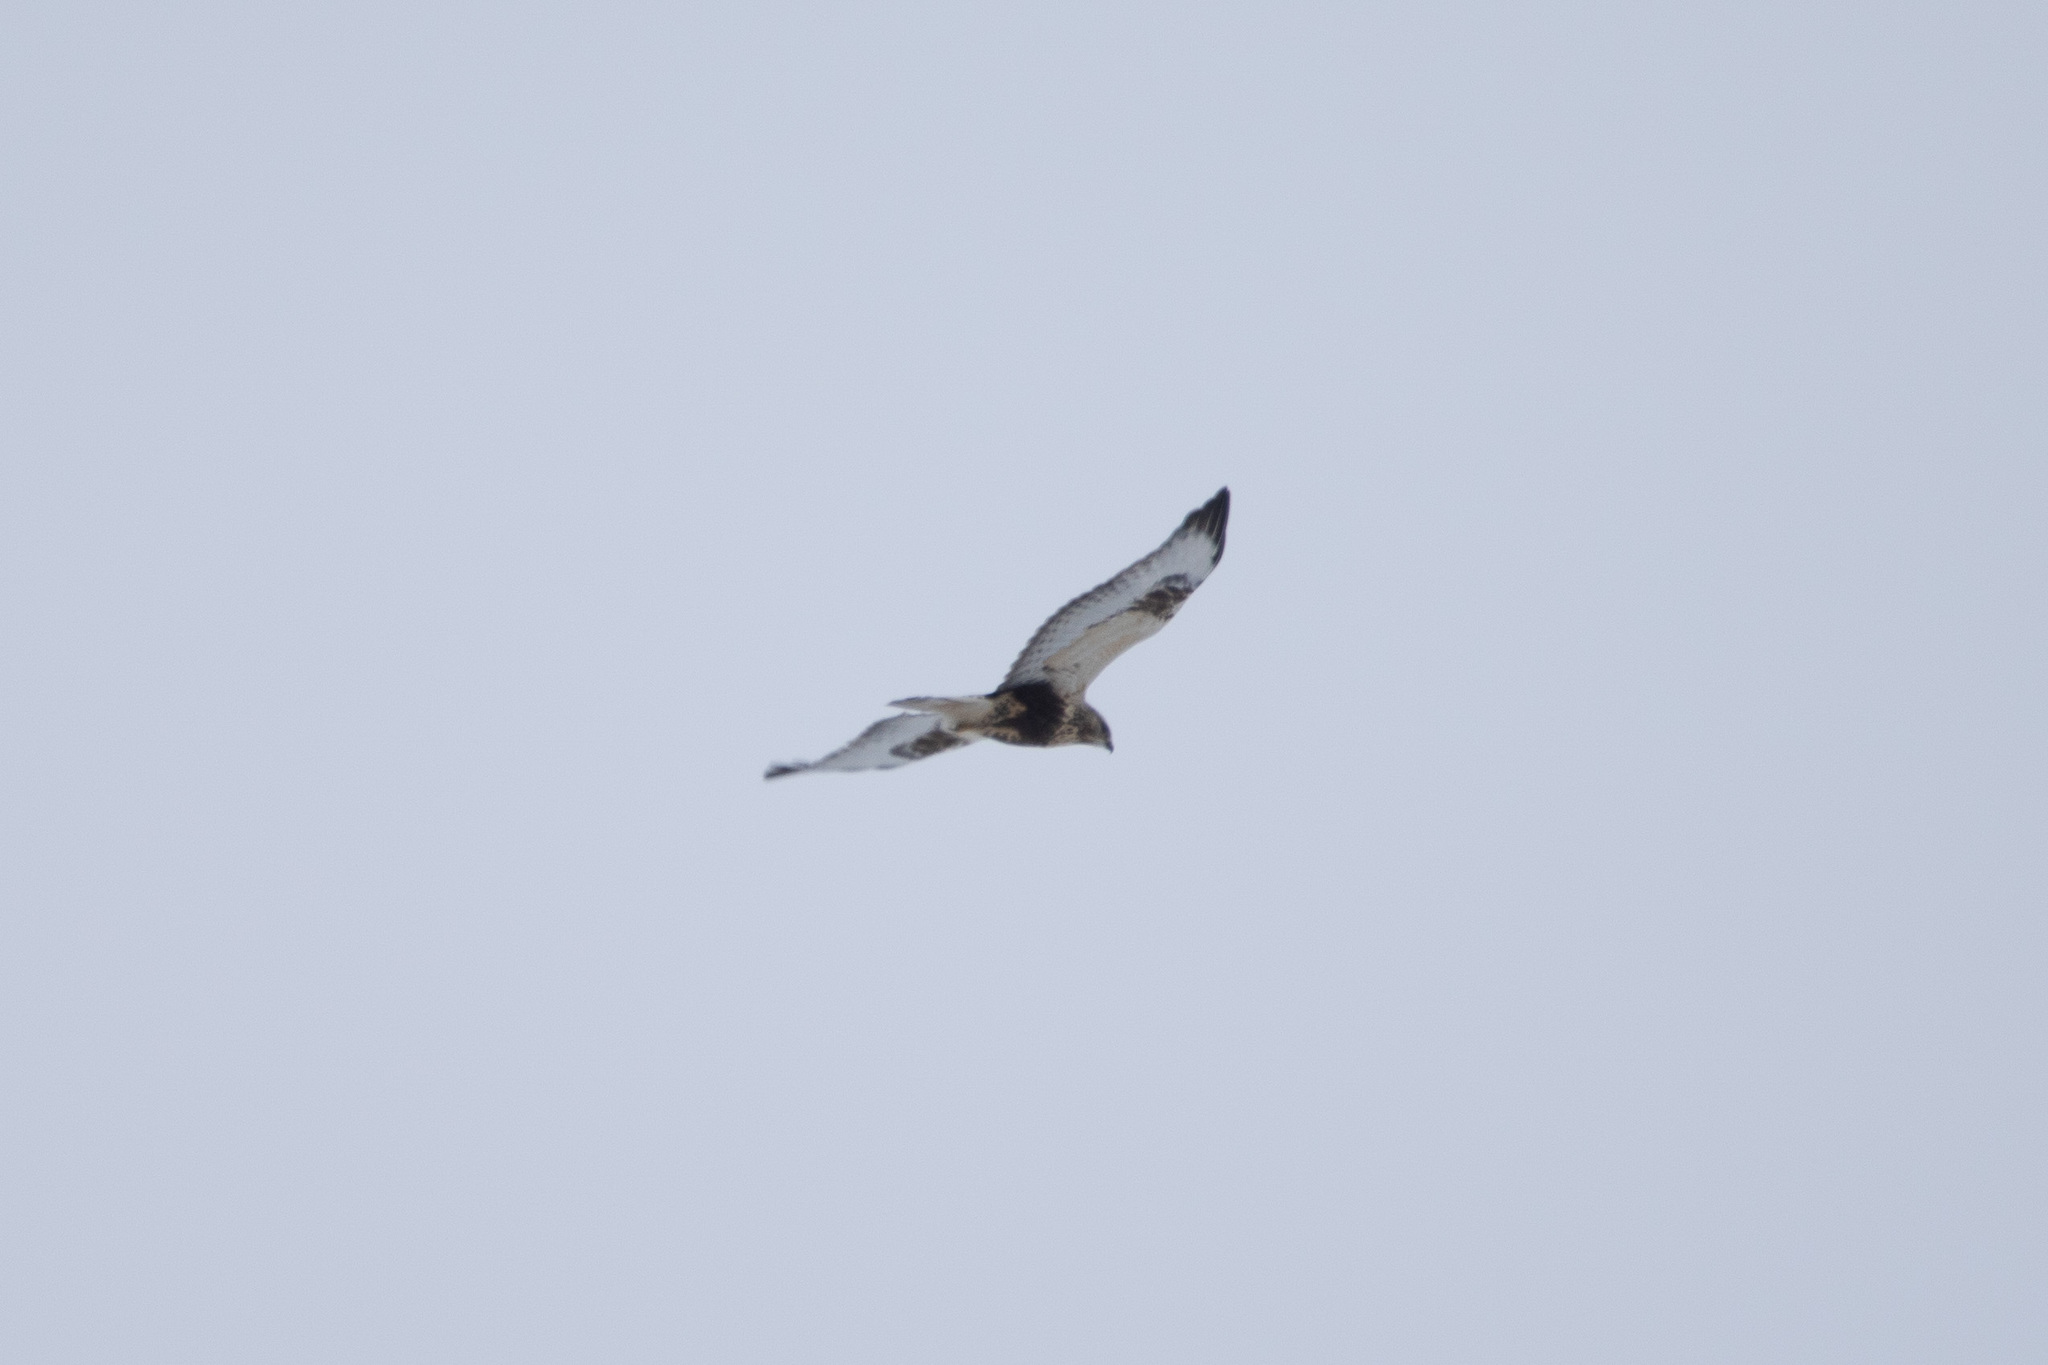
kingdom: Animalia
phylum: Chordata
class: Aves
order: Accipitriformes
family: Accipitridae
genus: Buteo
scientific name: Buteo lagopus
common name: Rough-legged buzzard
